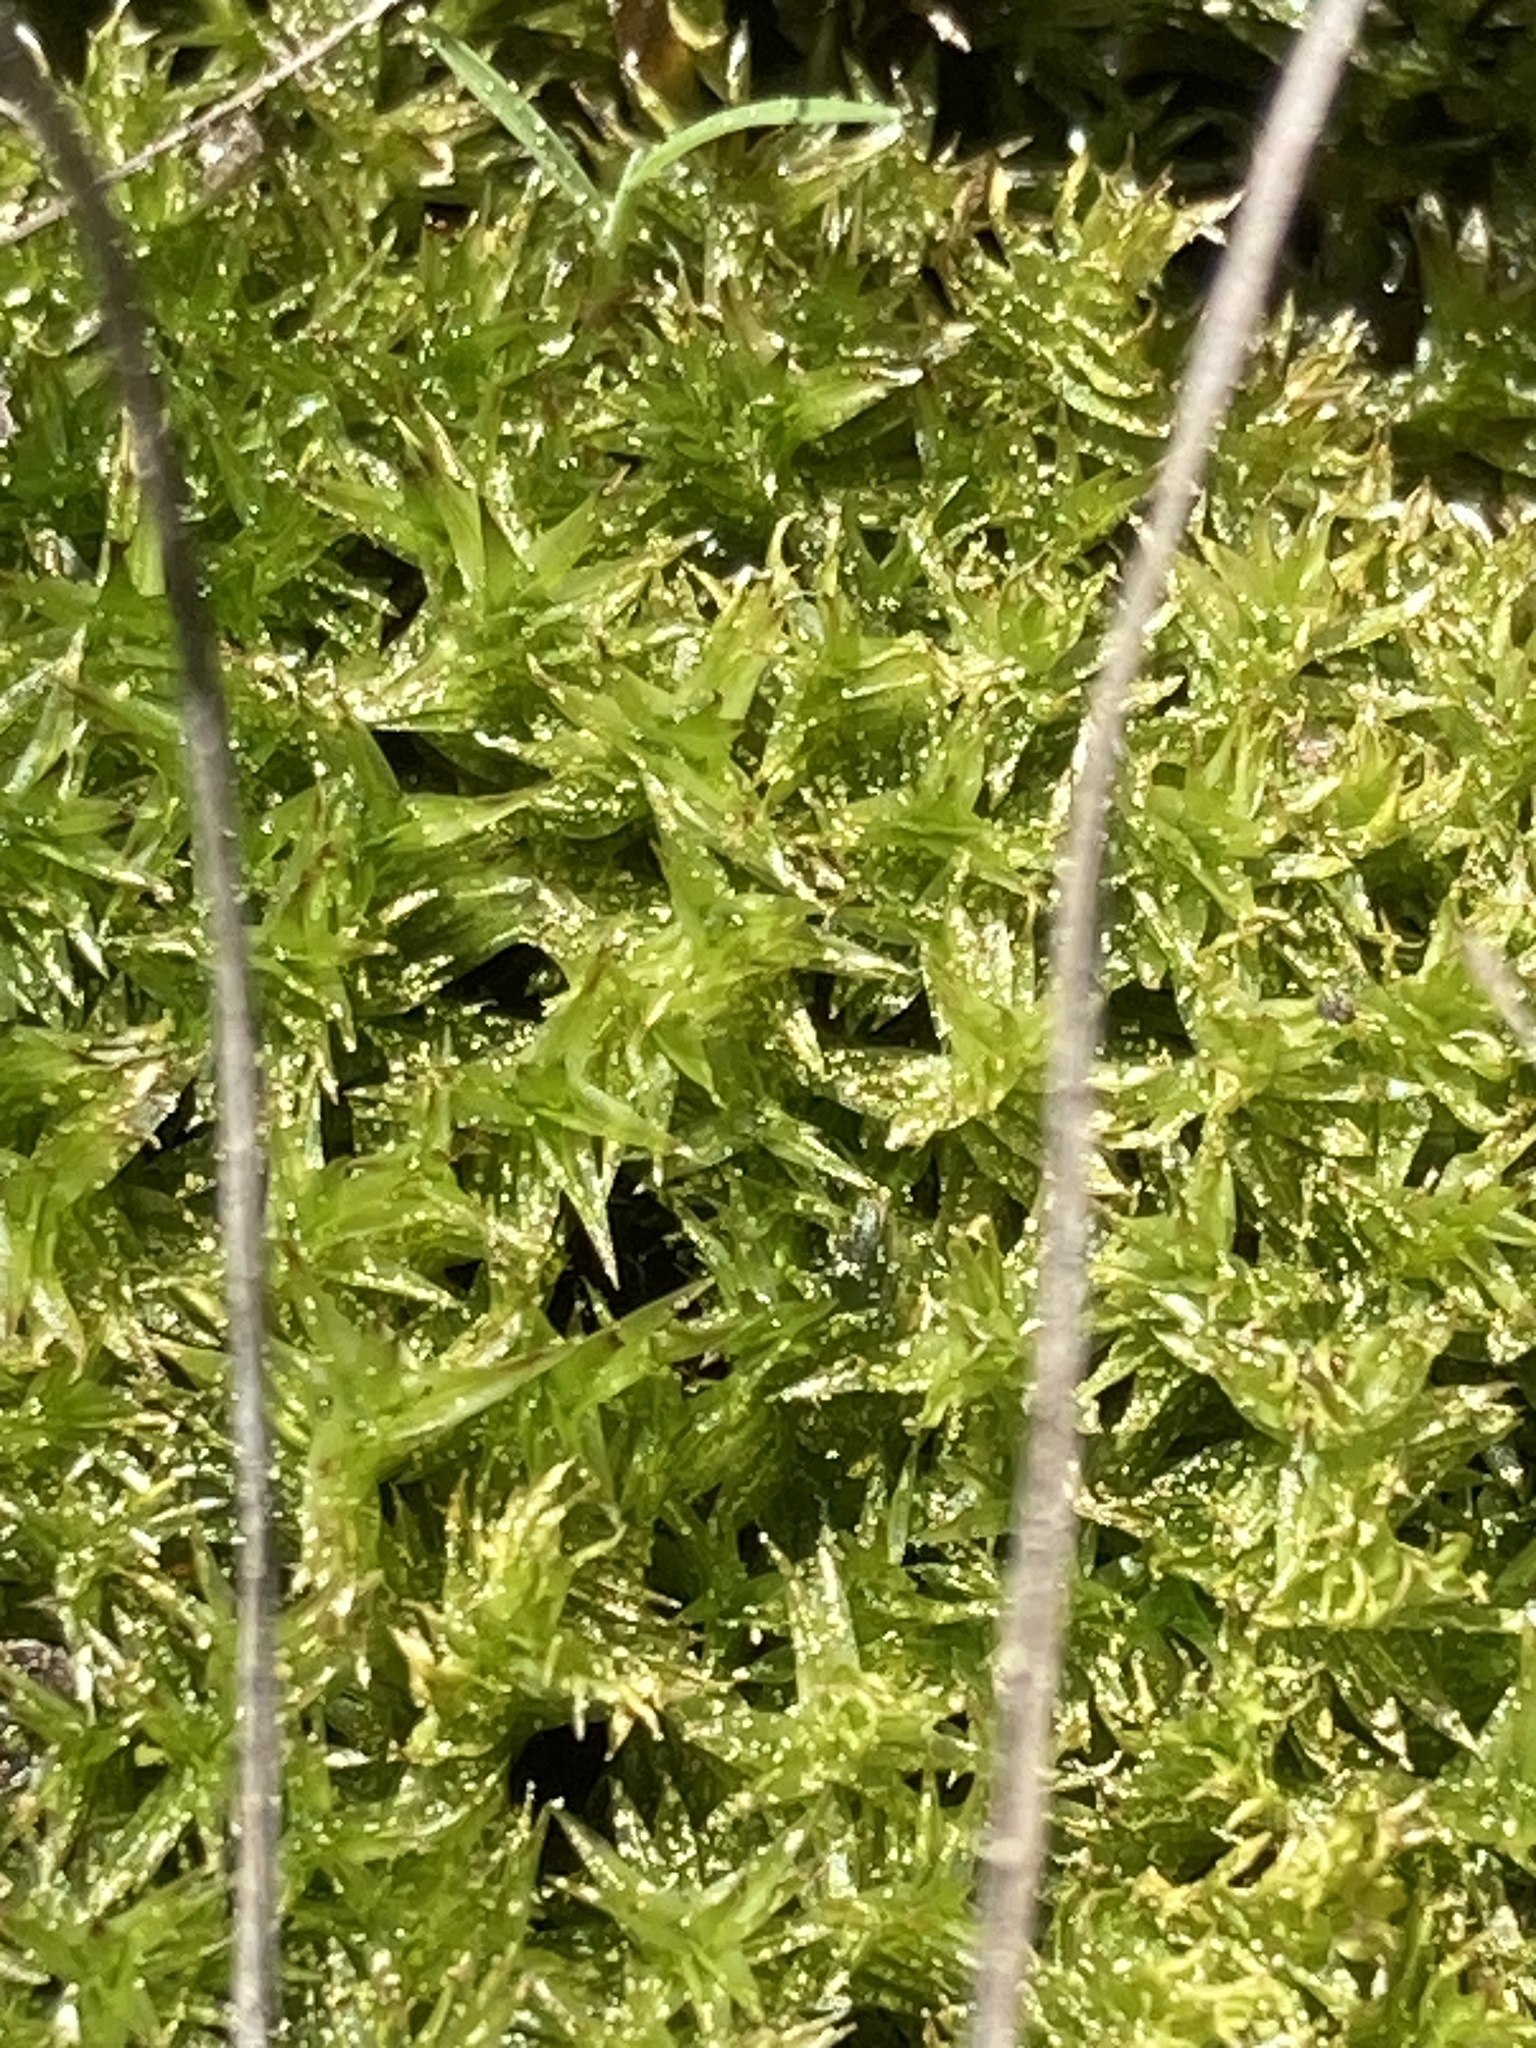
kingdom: Plantae
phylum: Bryophyta
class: Bryopsida
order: Splachnales
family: Meesiaceae
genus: Meesia
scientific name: Meesia triquetra
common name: Three-angled thread moss
